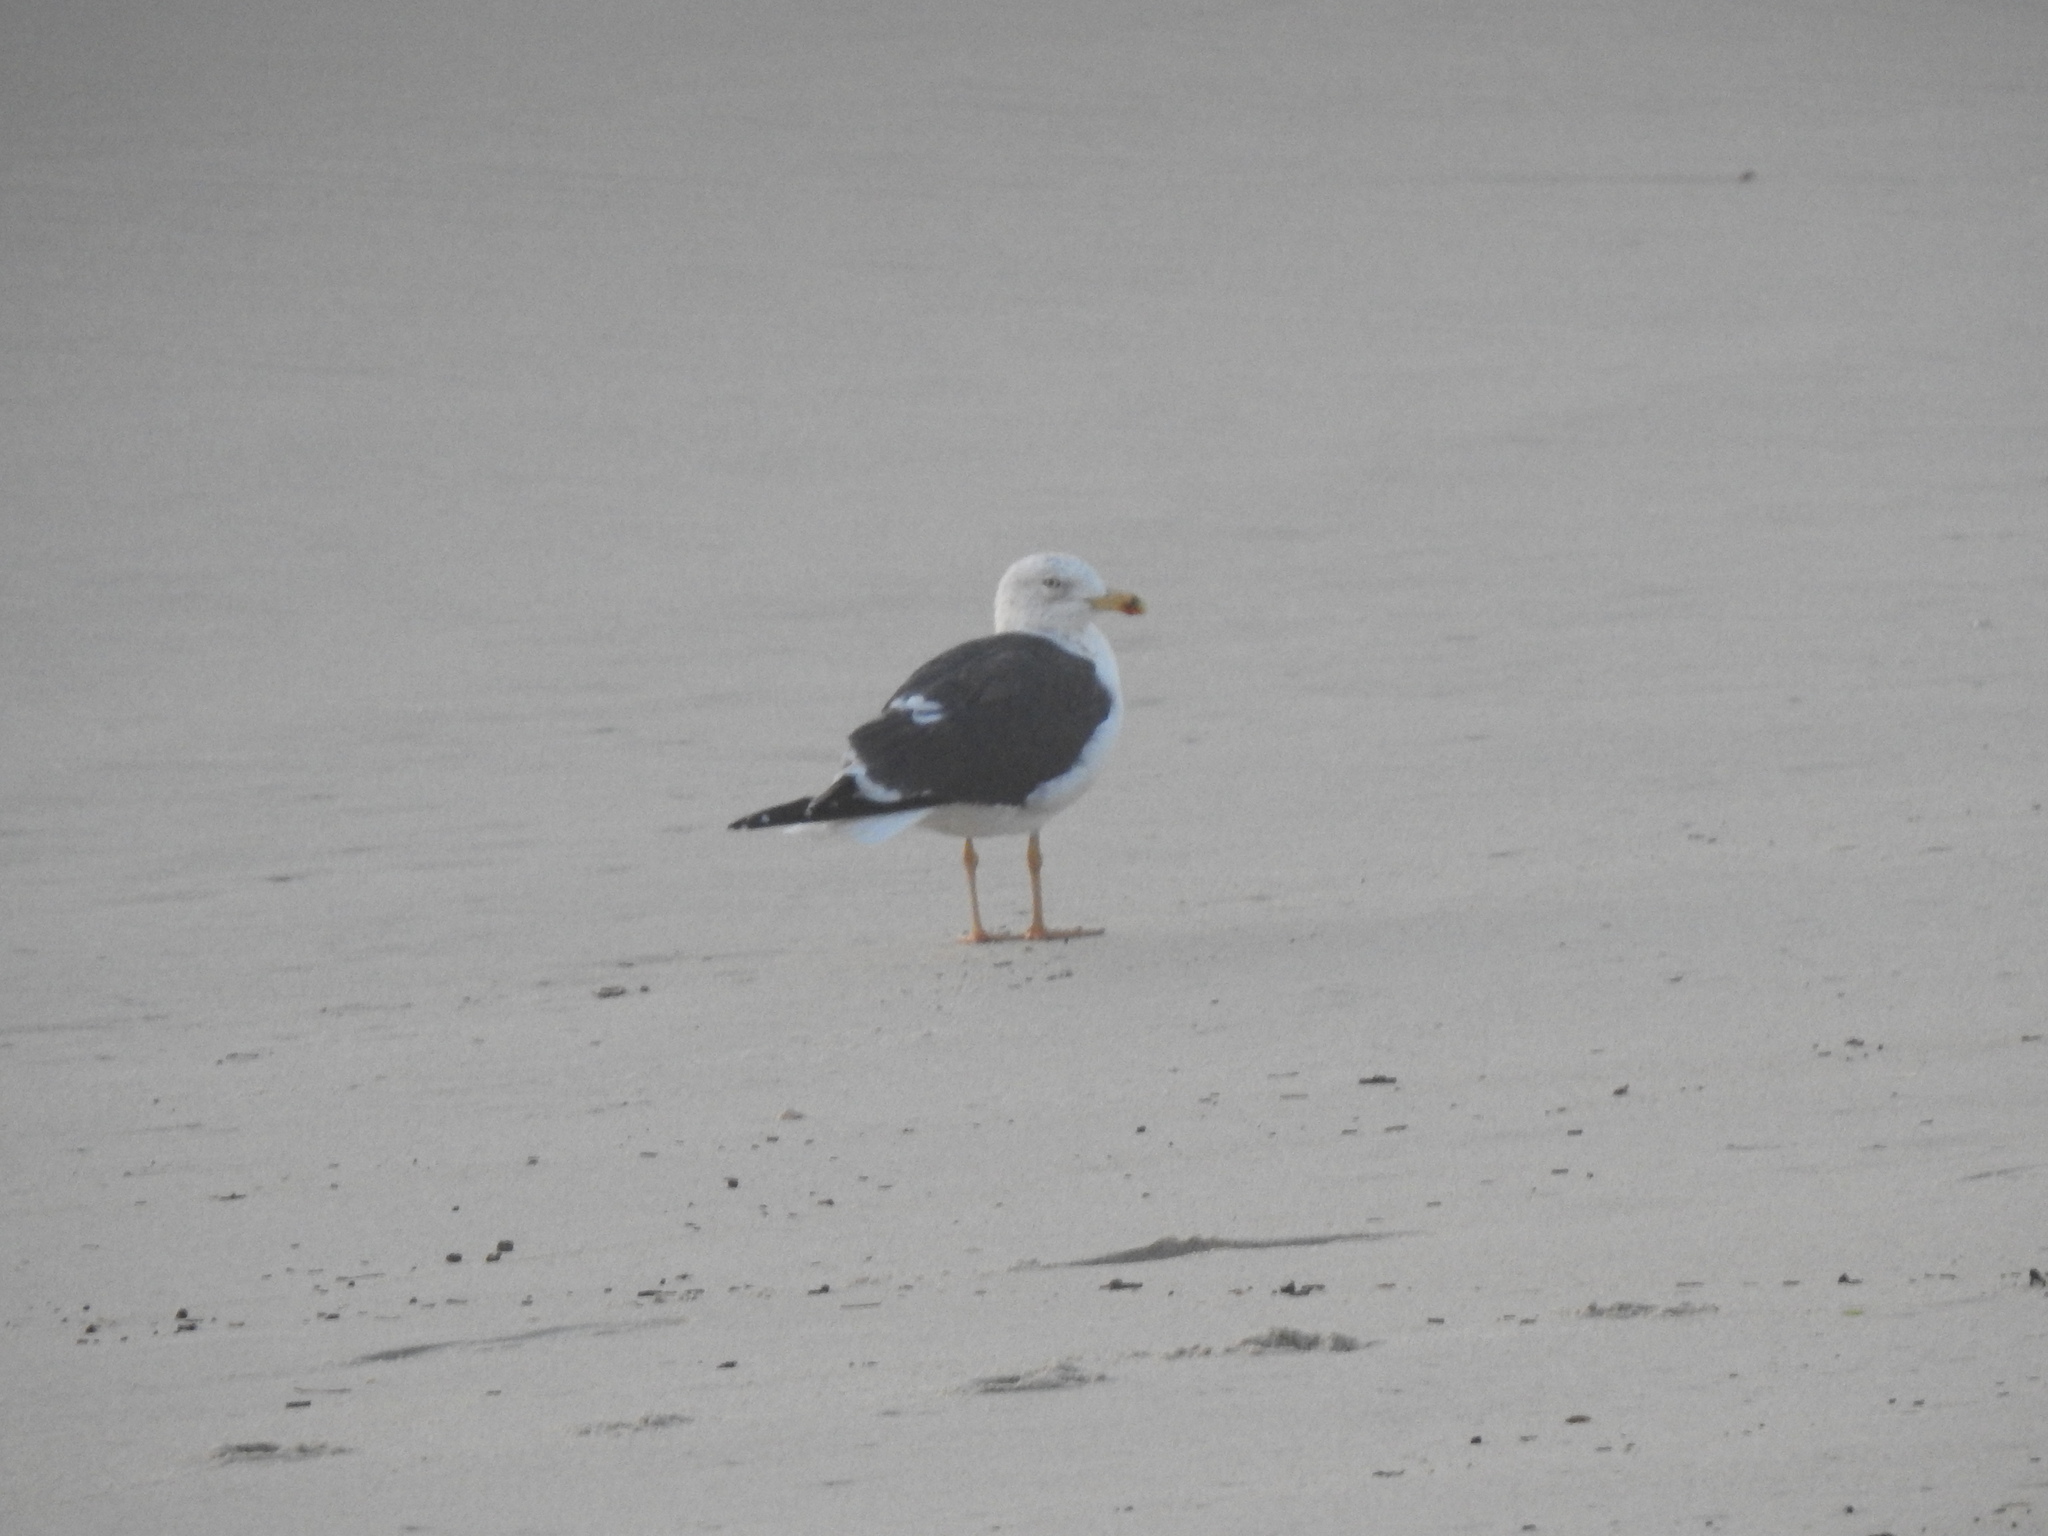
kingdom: Animalia
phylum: Chordata
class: Aves
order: Charadriiformes
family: Laridae
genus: Larus
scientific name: Larus fuscus
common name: Lesser black-backed gull
